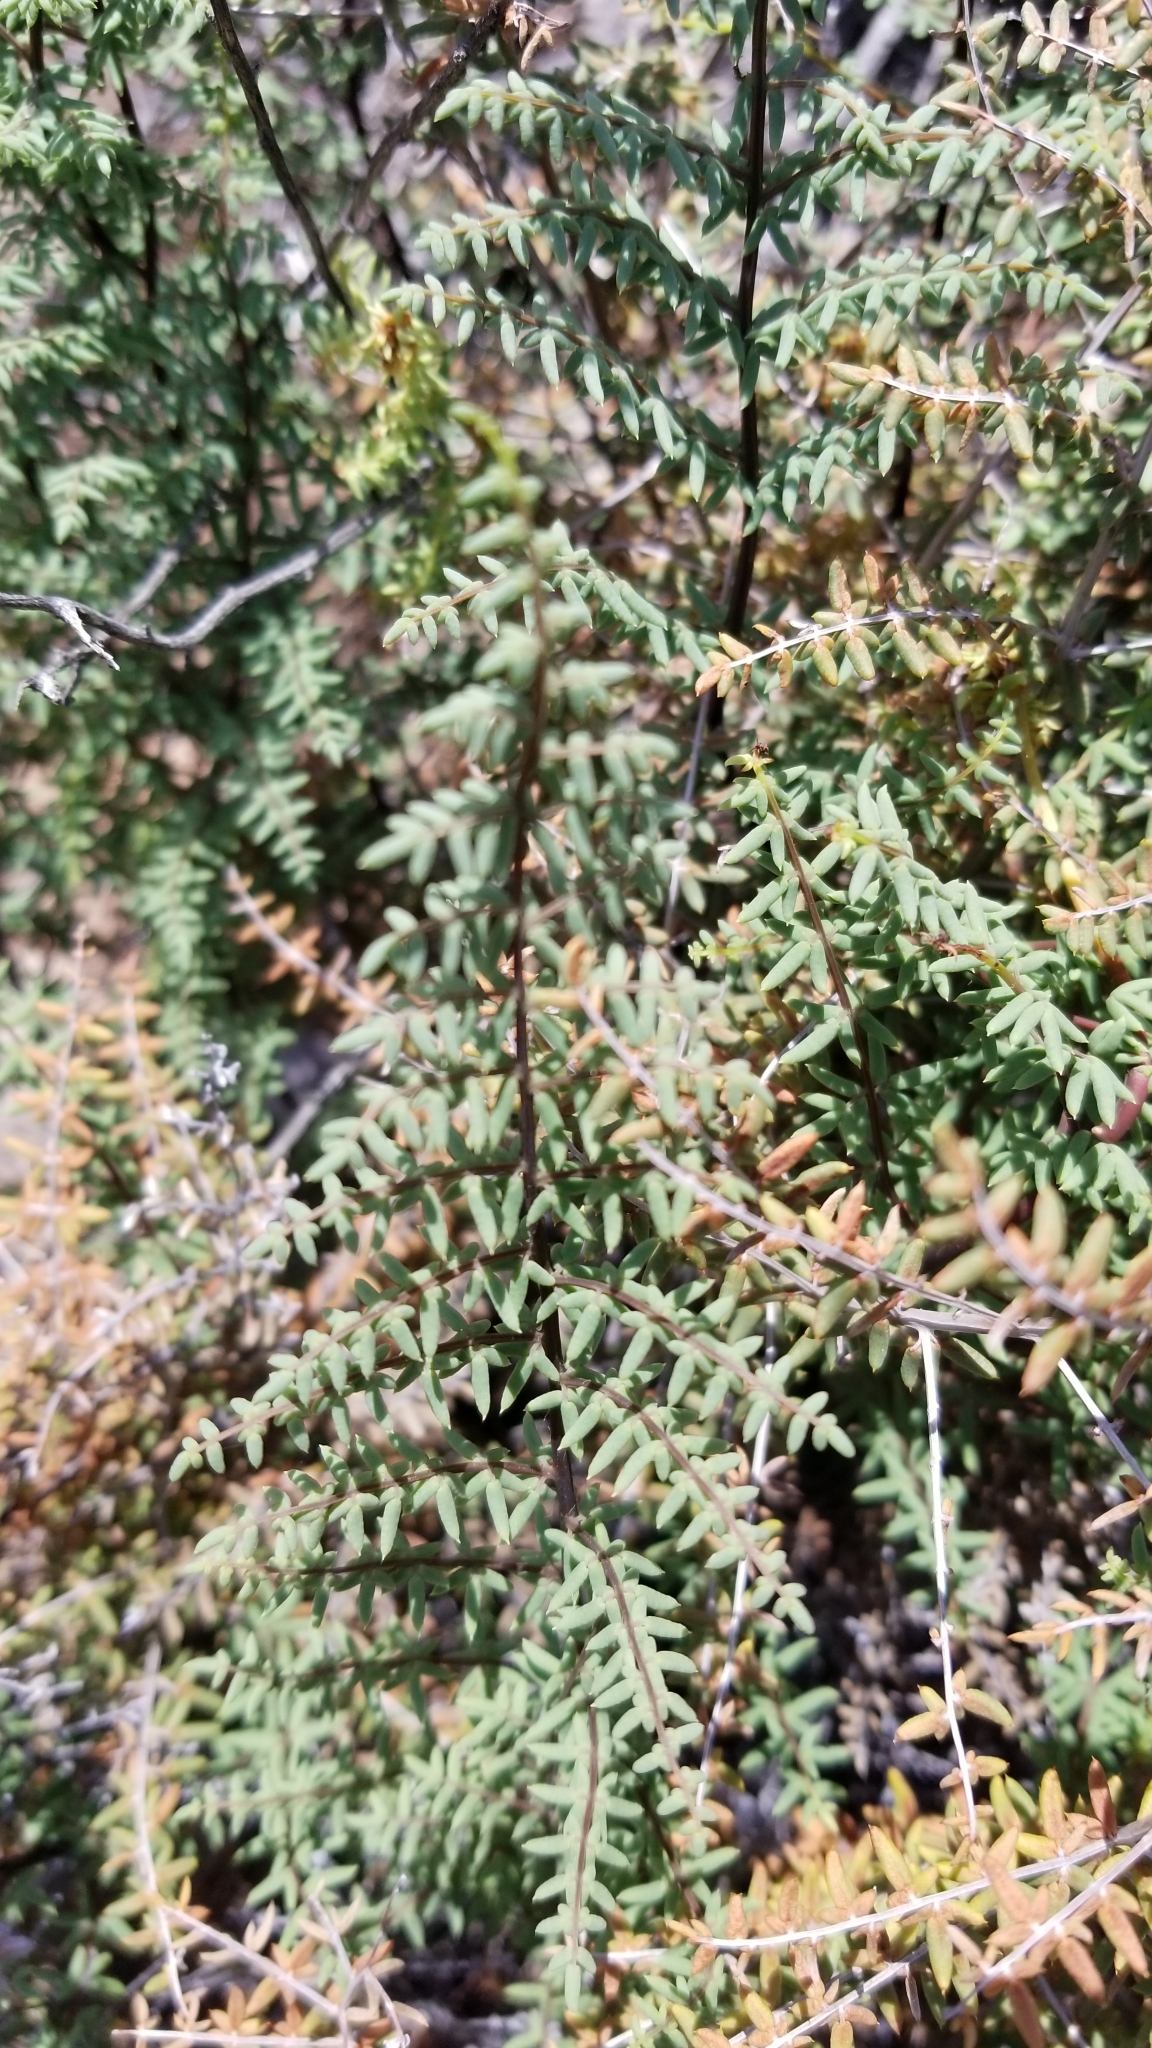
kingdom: Plantae
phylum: Tracheophyta
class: Polypodiopsida
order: Polypodiales
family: Pteridaceae
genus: Pellaea
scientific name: Pellaea mucronata
